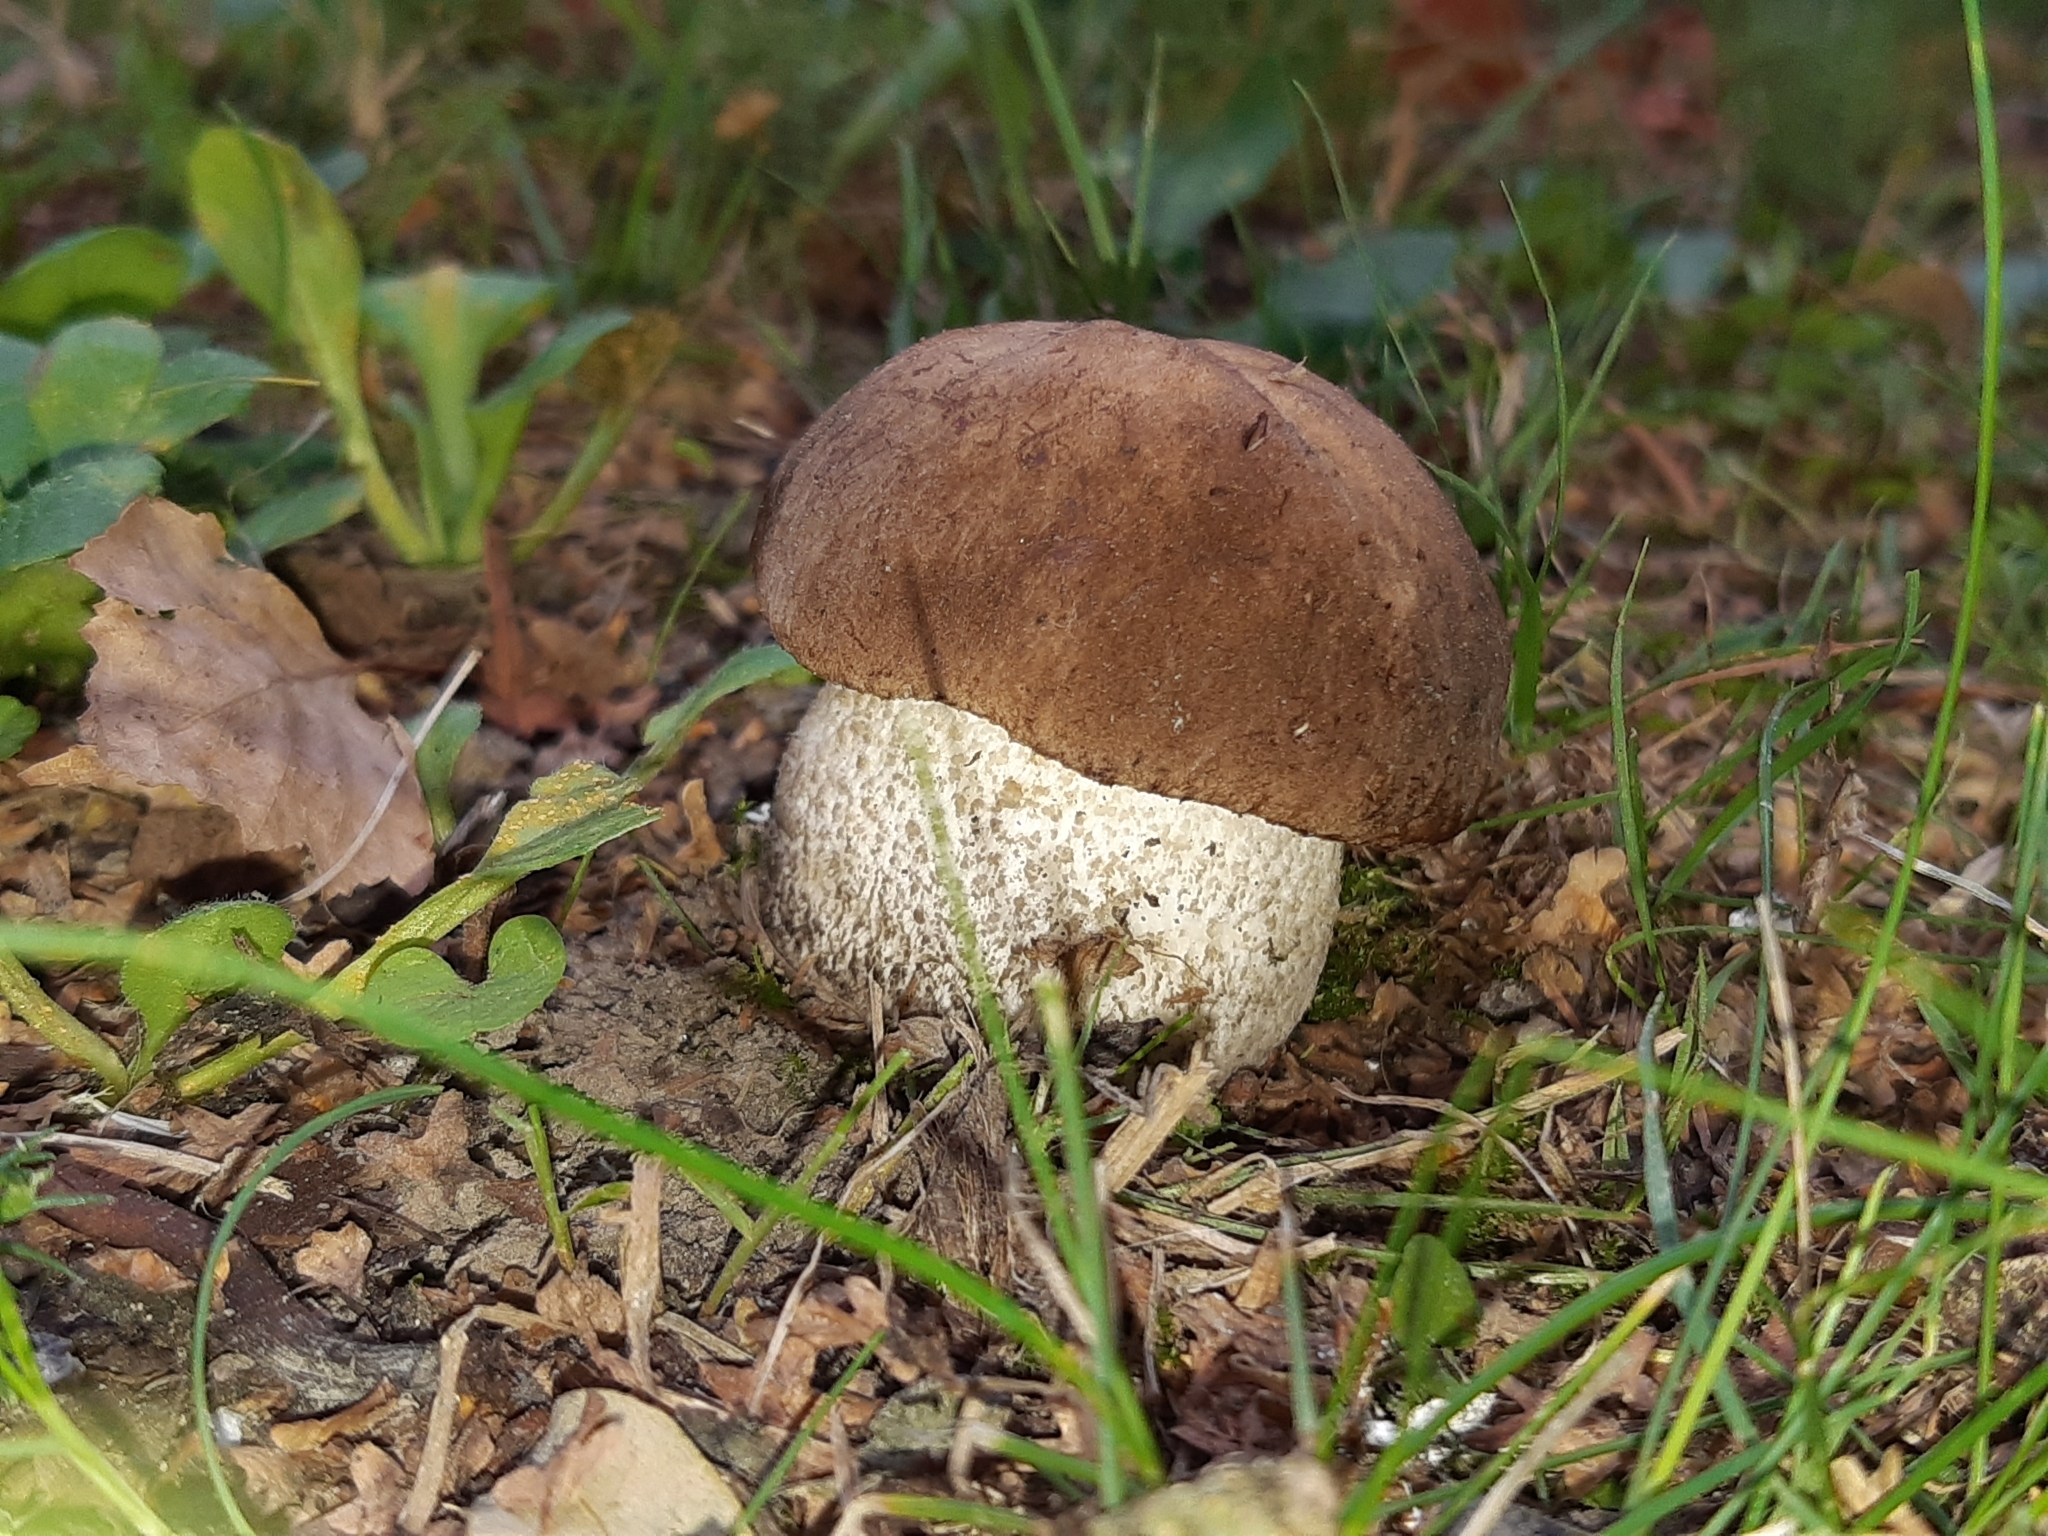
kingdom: Fungi
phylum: Basidiomycota
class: Agaricomycetes
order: Boletales
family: Boletaceae
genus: Leccinum
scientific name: Leccinum scabrum
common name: Blushing bolete
